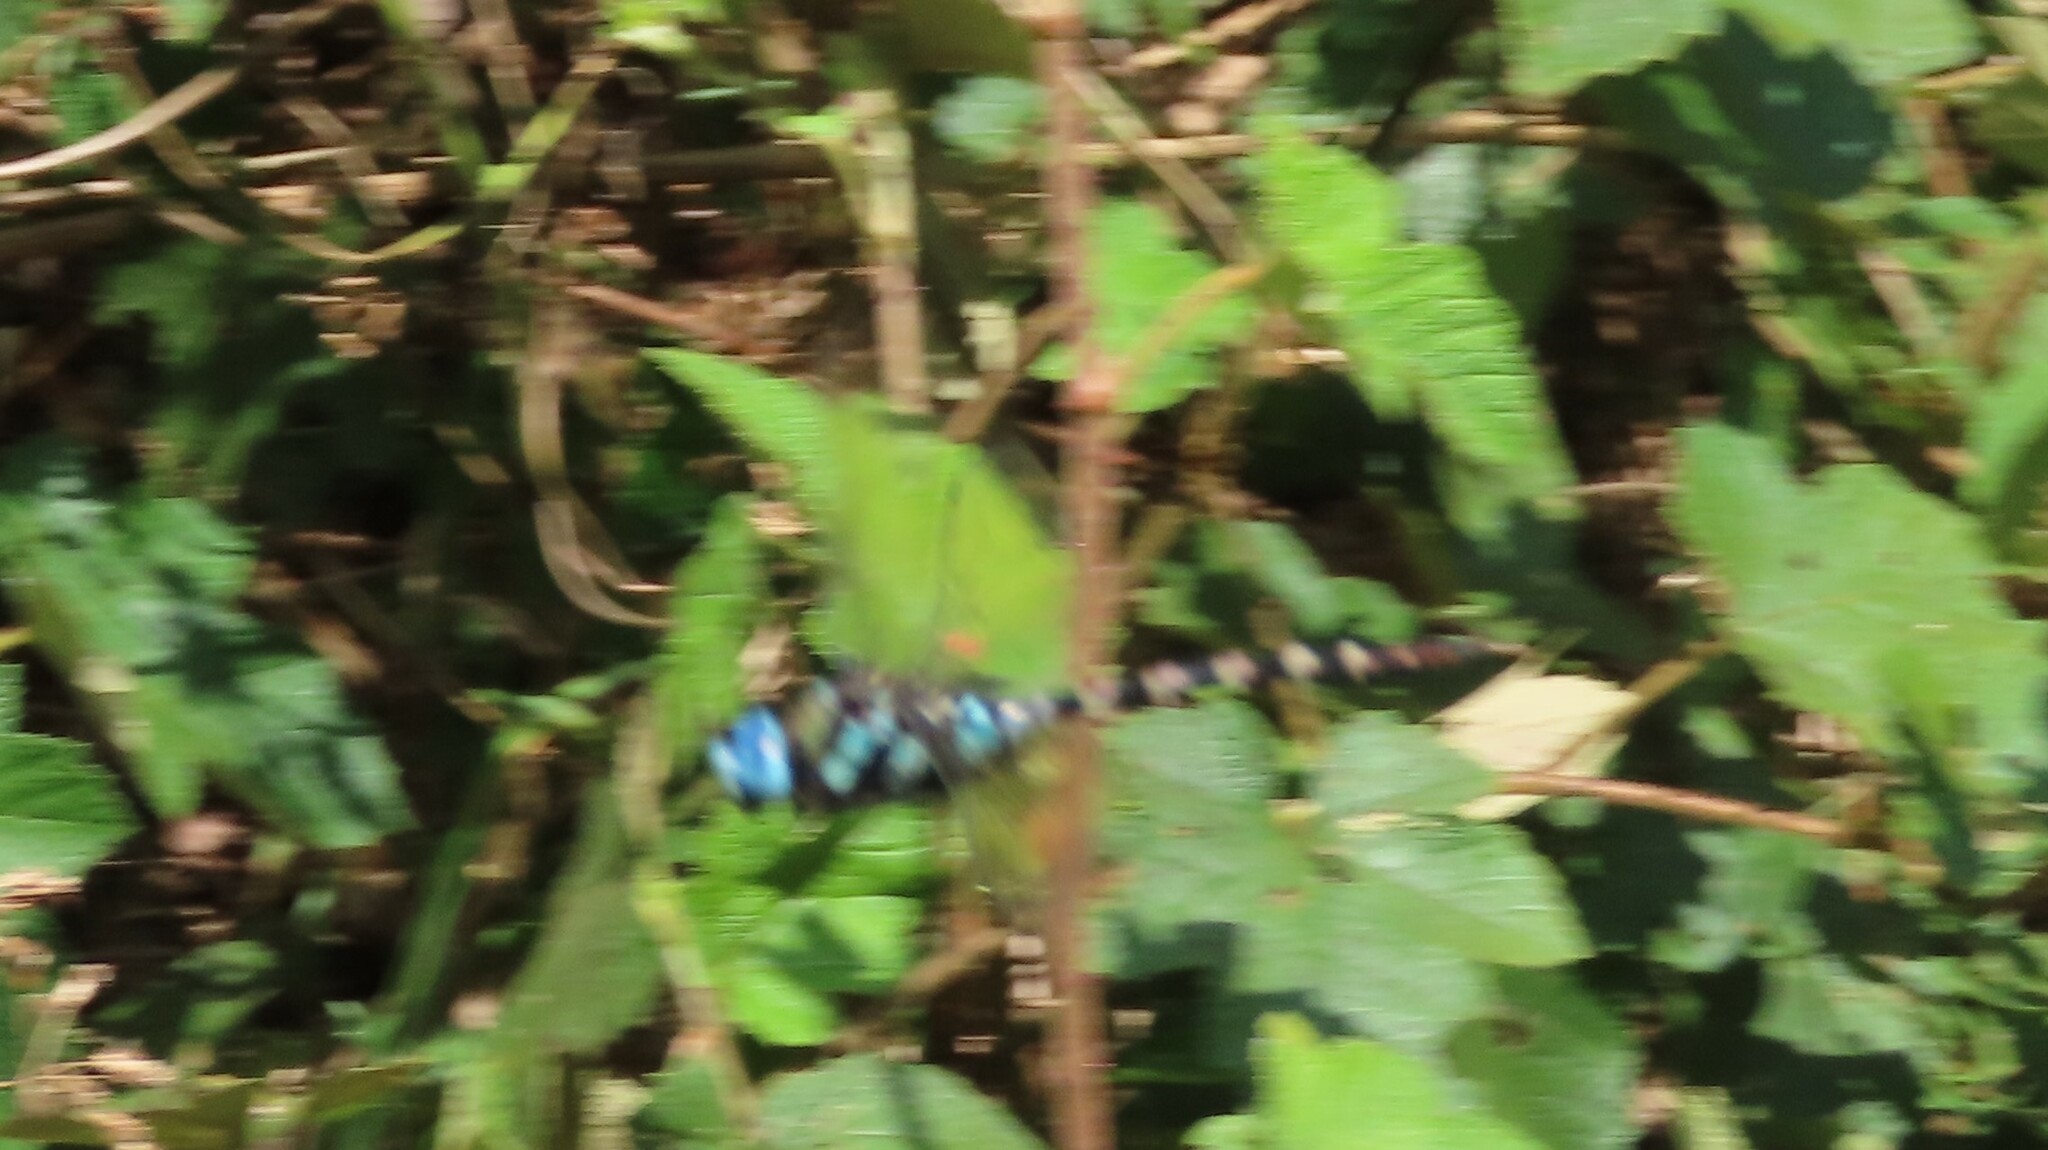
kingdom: Animalia
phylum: Arthropoda
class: Insecta
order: Odonata
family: Aeshnidae
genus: Anax
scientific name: Anax immaculifrons
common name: Magnificent emperor
